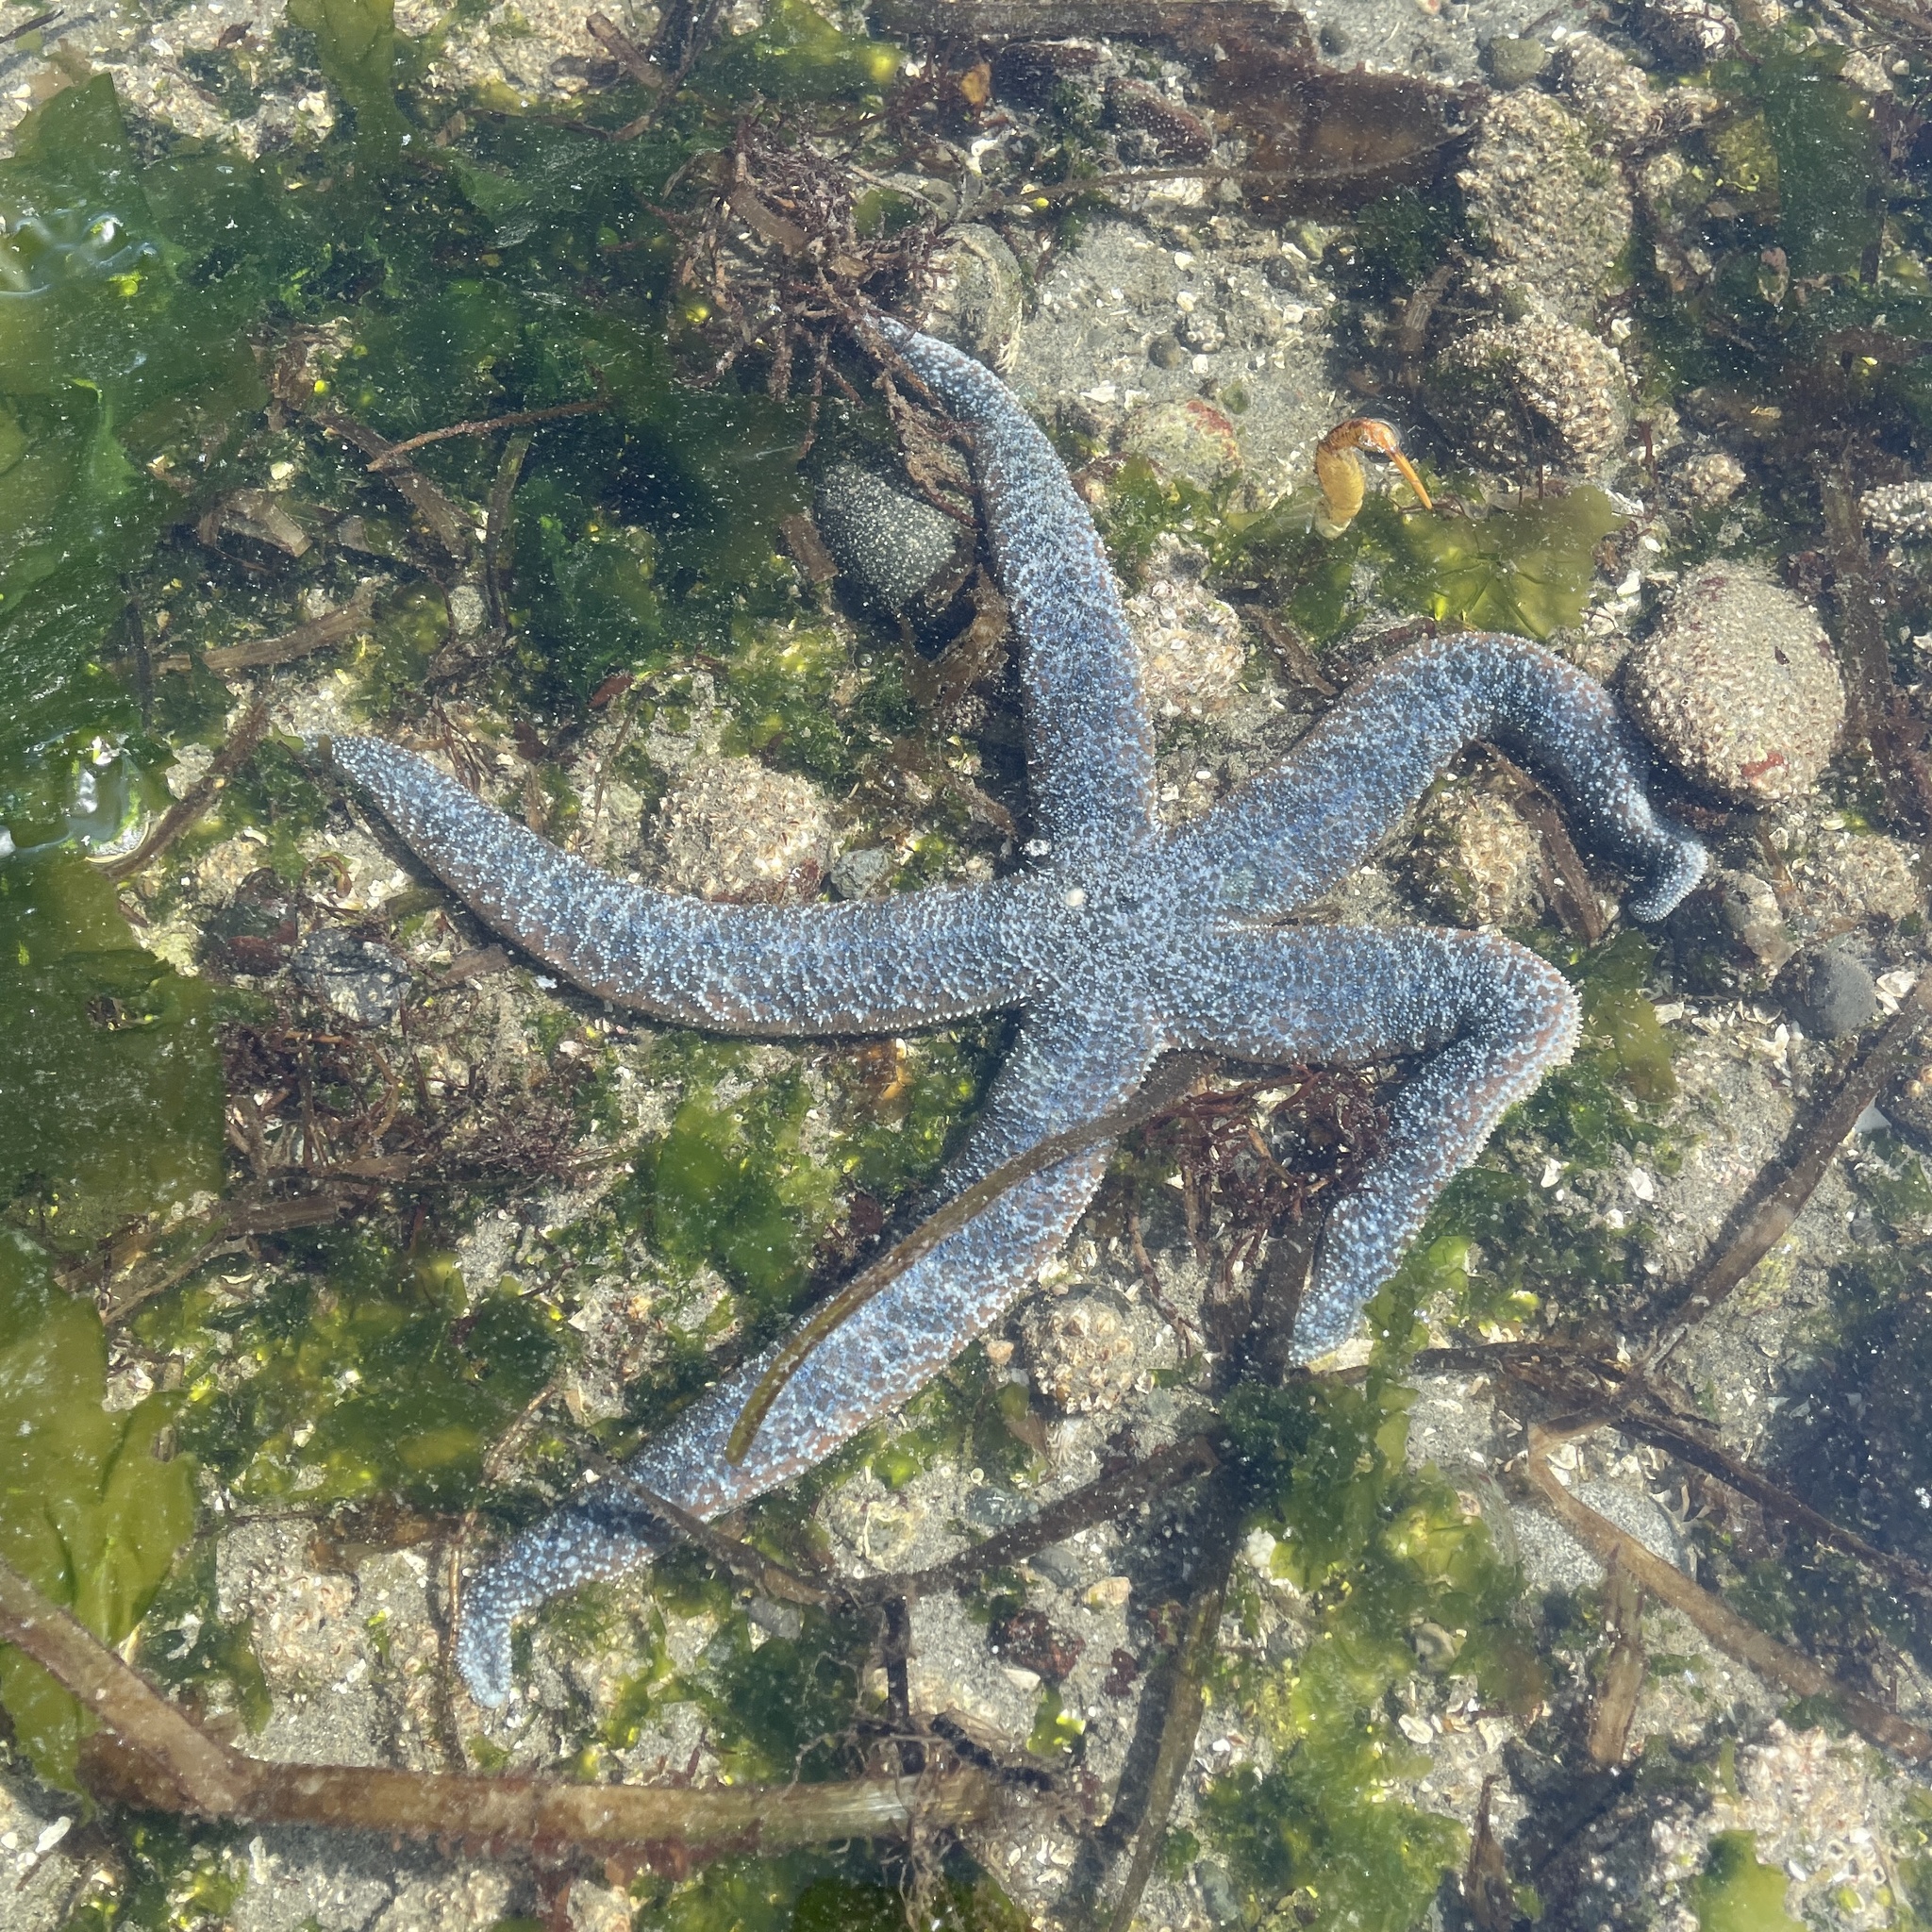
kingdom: Animalia
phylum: Echinodermata
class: Asteroidea
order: Forcipulatida
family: Asteriidae
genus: Evasterias
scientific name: Evasterias troschelii
